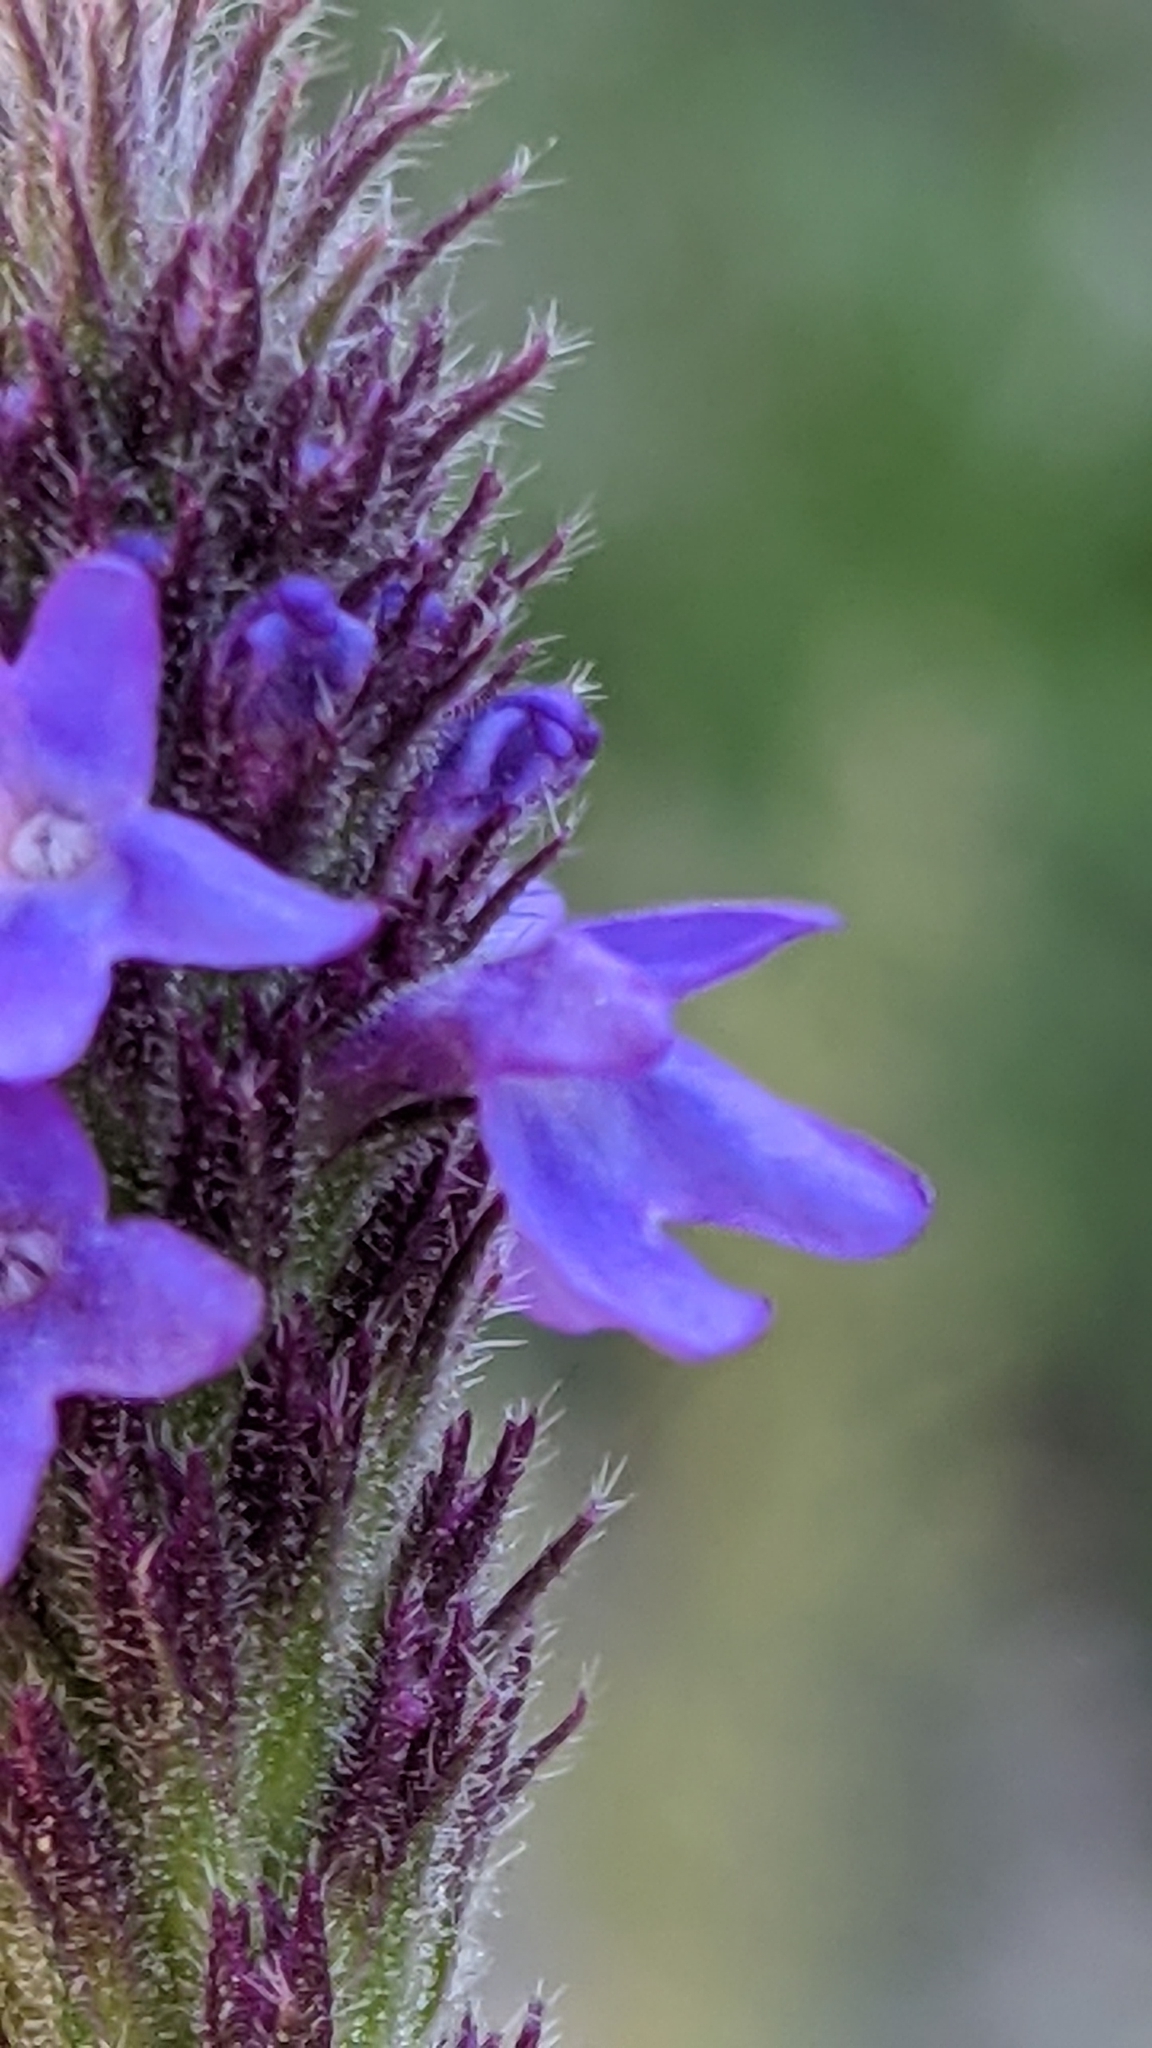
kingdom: Plantae
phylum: Tracheophyta
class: Magnoliopsida
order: Lamiales
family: Verbenaceae
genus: Verbena
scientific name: Verbena macdougalii
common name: New mexico vervain
